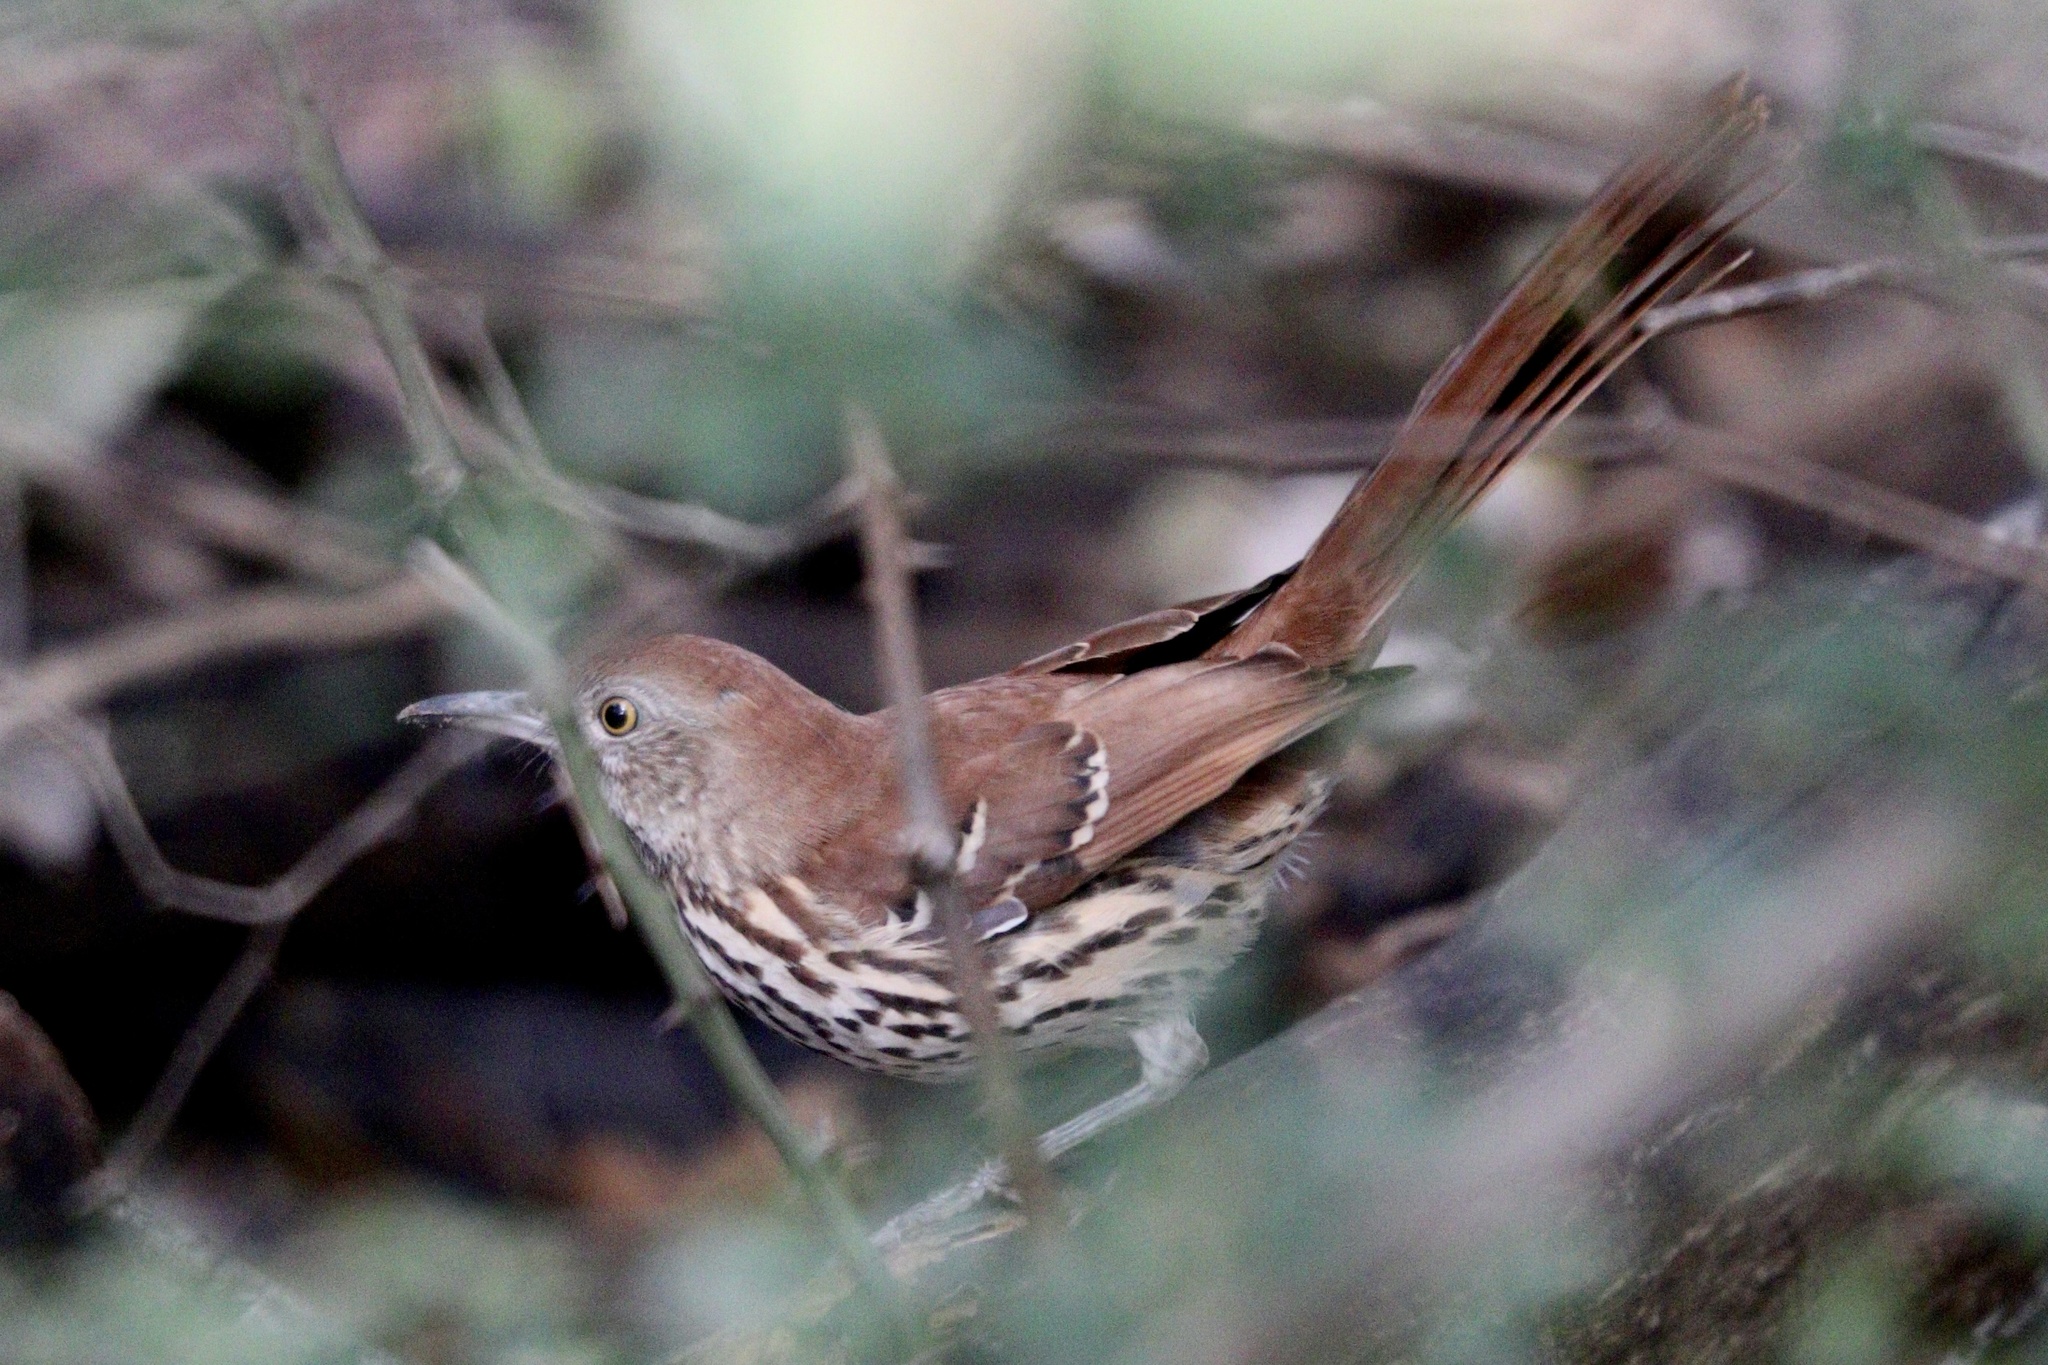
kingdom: Animalia
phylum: Chordata
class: Aves
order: Passeriformes
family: Mimidae
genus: Toxostoma
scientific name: Toxostoma rufum
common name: Brown thrasher
